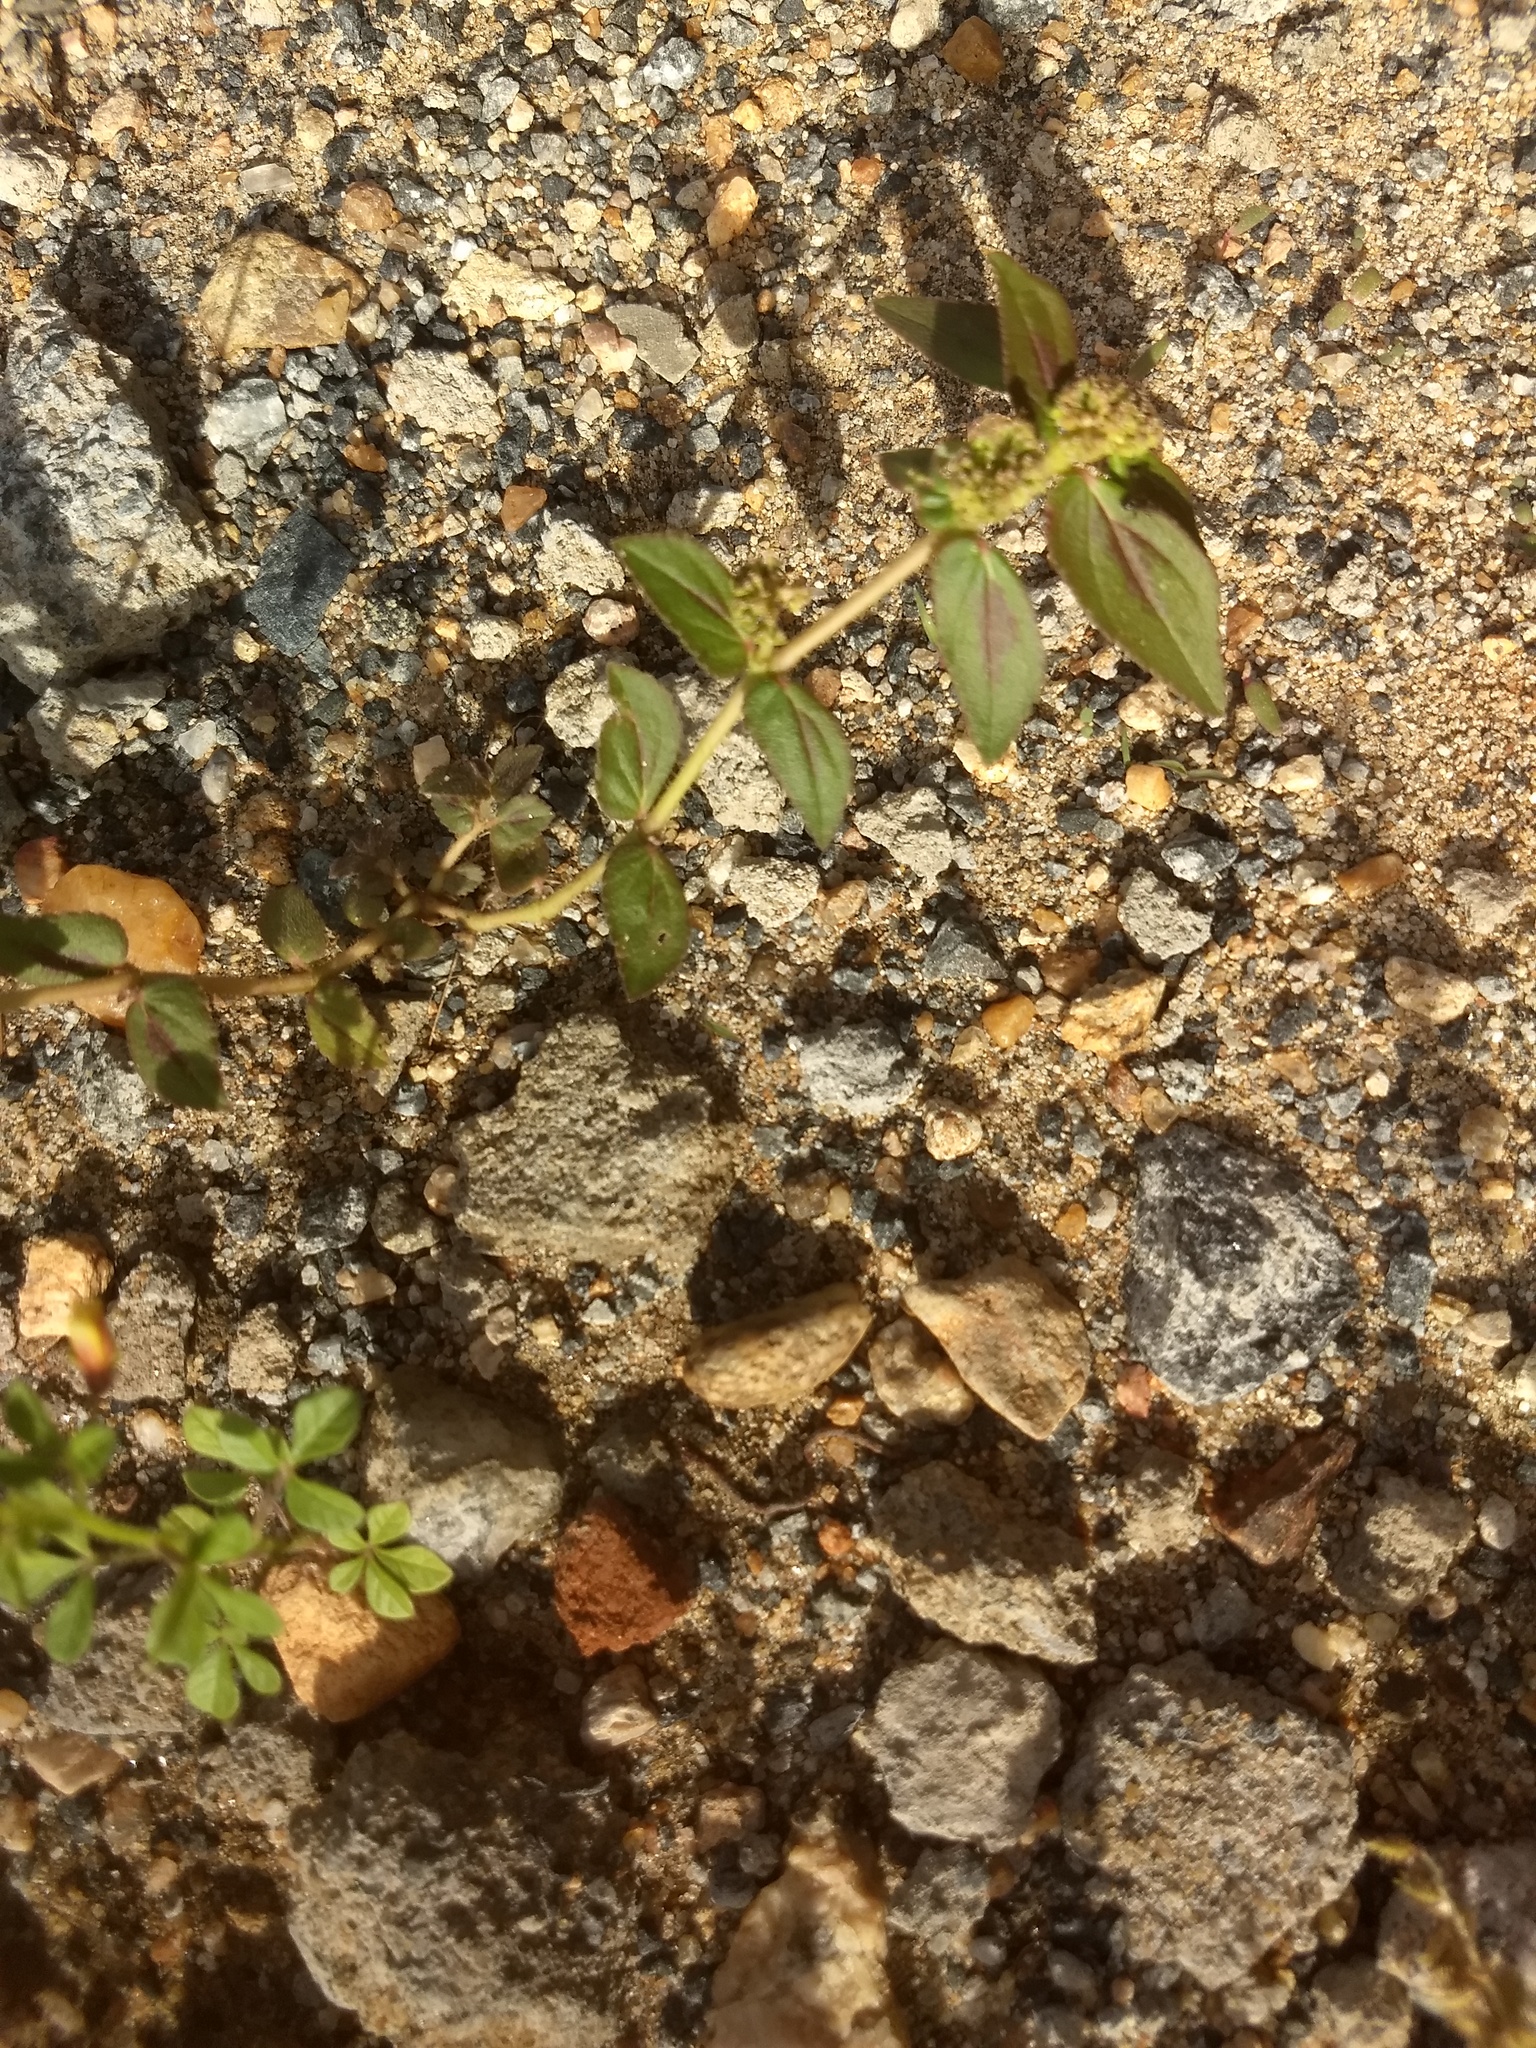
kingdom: Plantae
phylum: Tracheophyta
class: Magnoliopsida
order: Malpighiales
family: Euphorbiaceae
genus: Euphorbia
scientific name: Euphorbia hirta
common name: Pillpod sandmat
